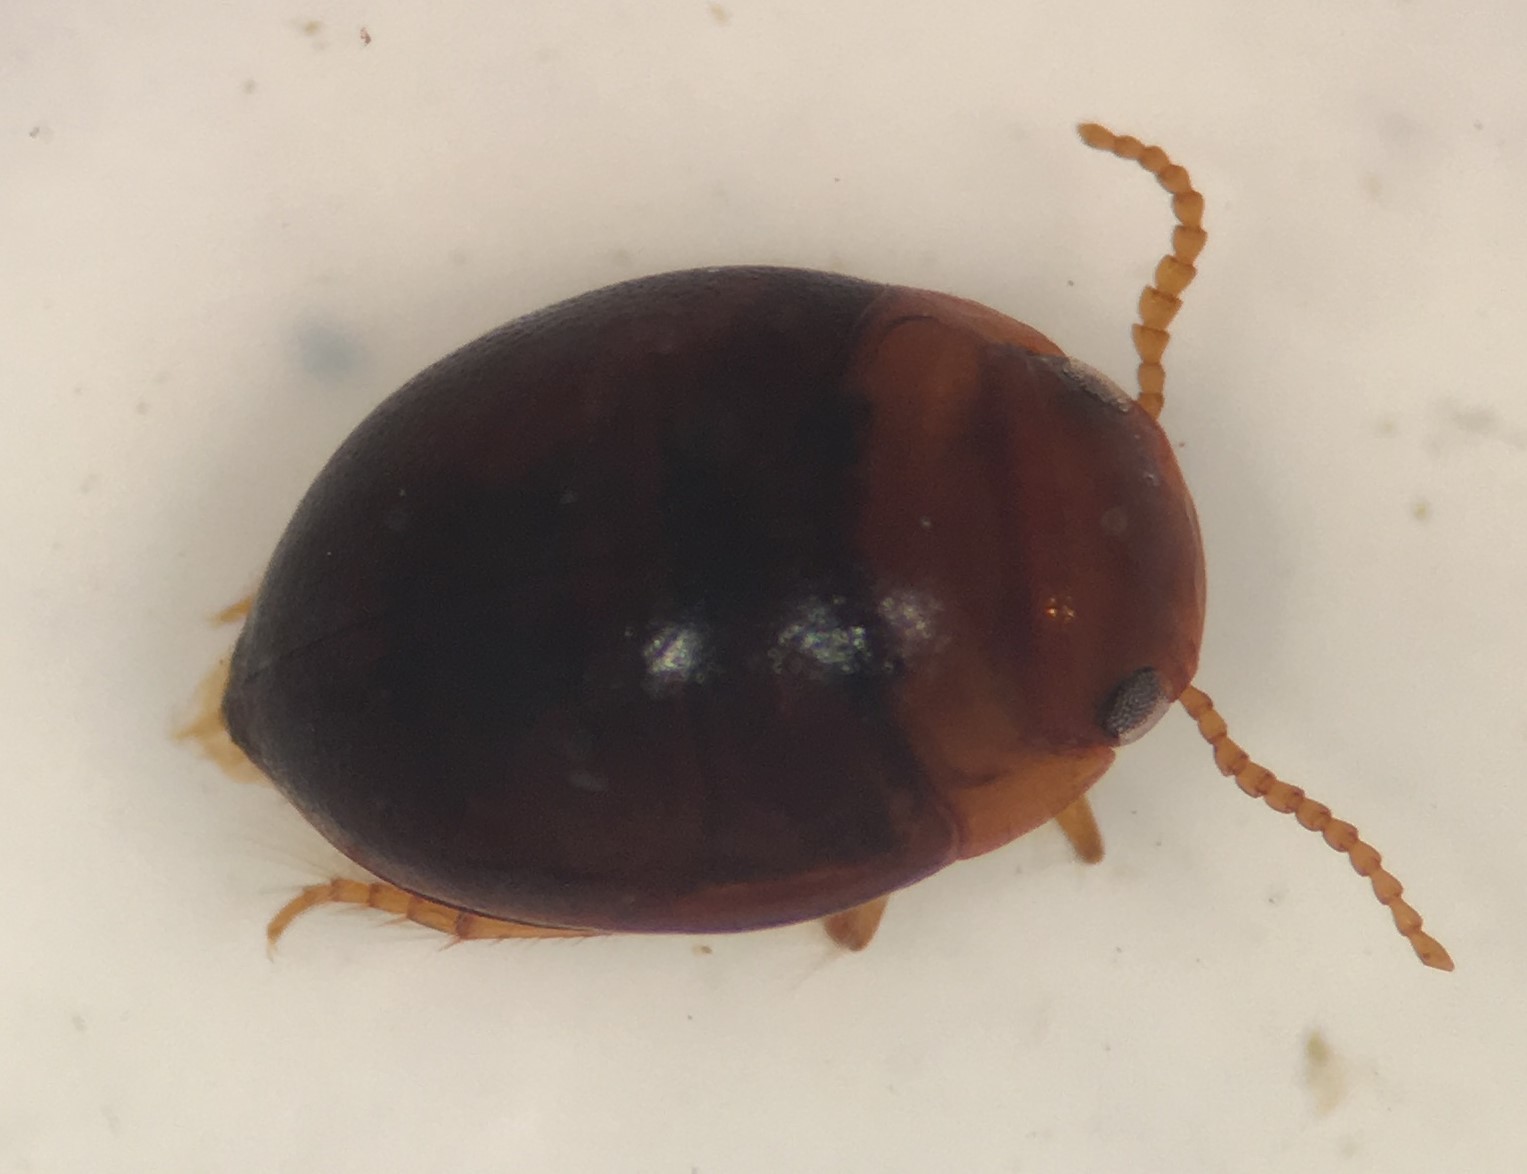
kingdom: Animalia
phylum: Arthropoda
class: Insecta
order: Coleoptera
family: Dytiscidae
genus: Hydrovatus
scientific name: Hydrovatus platycornis
